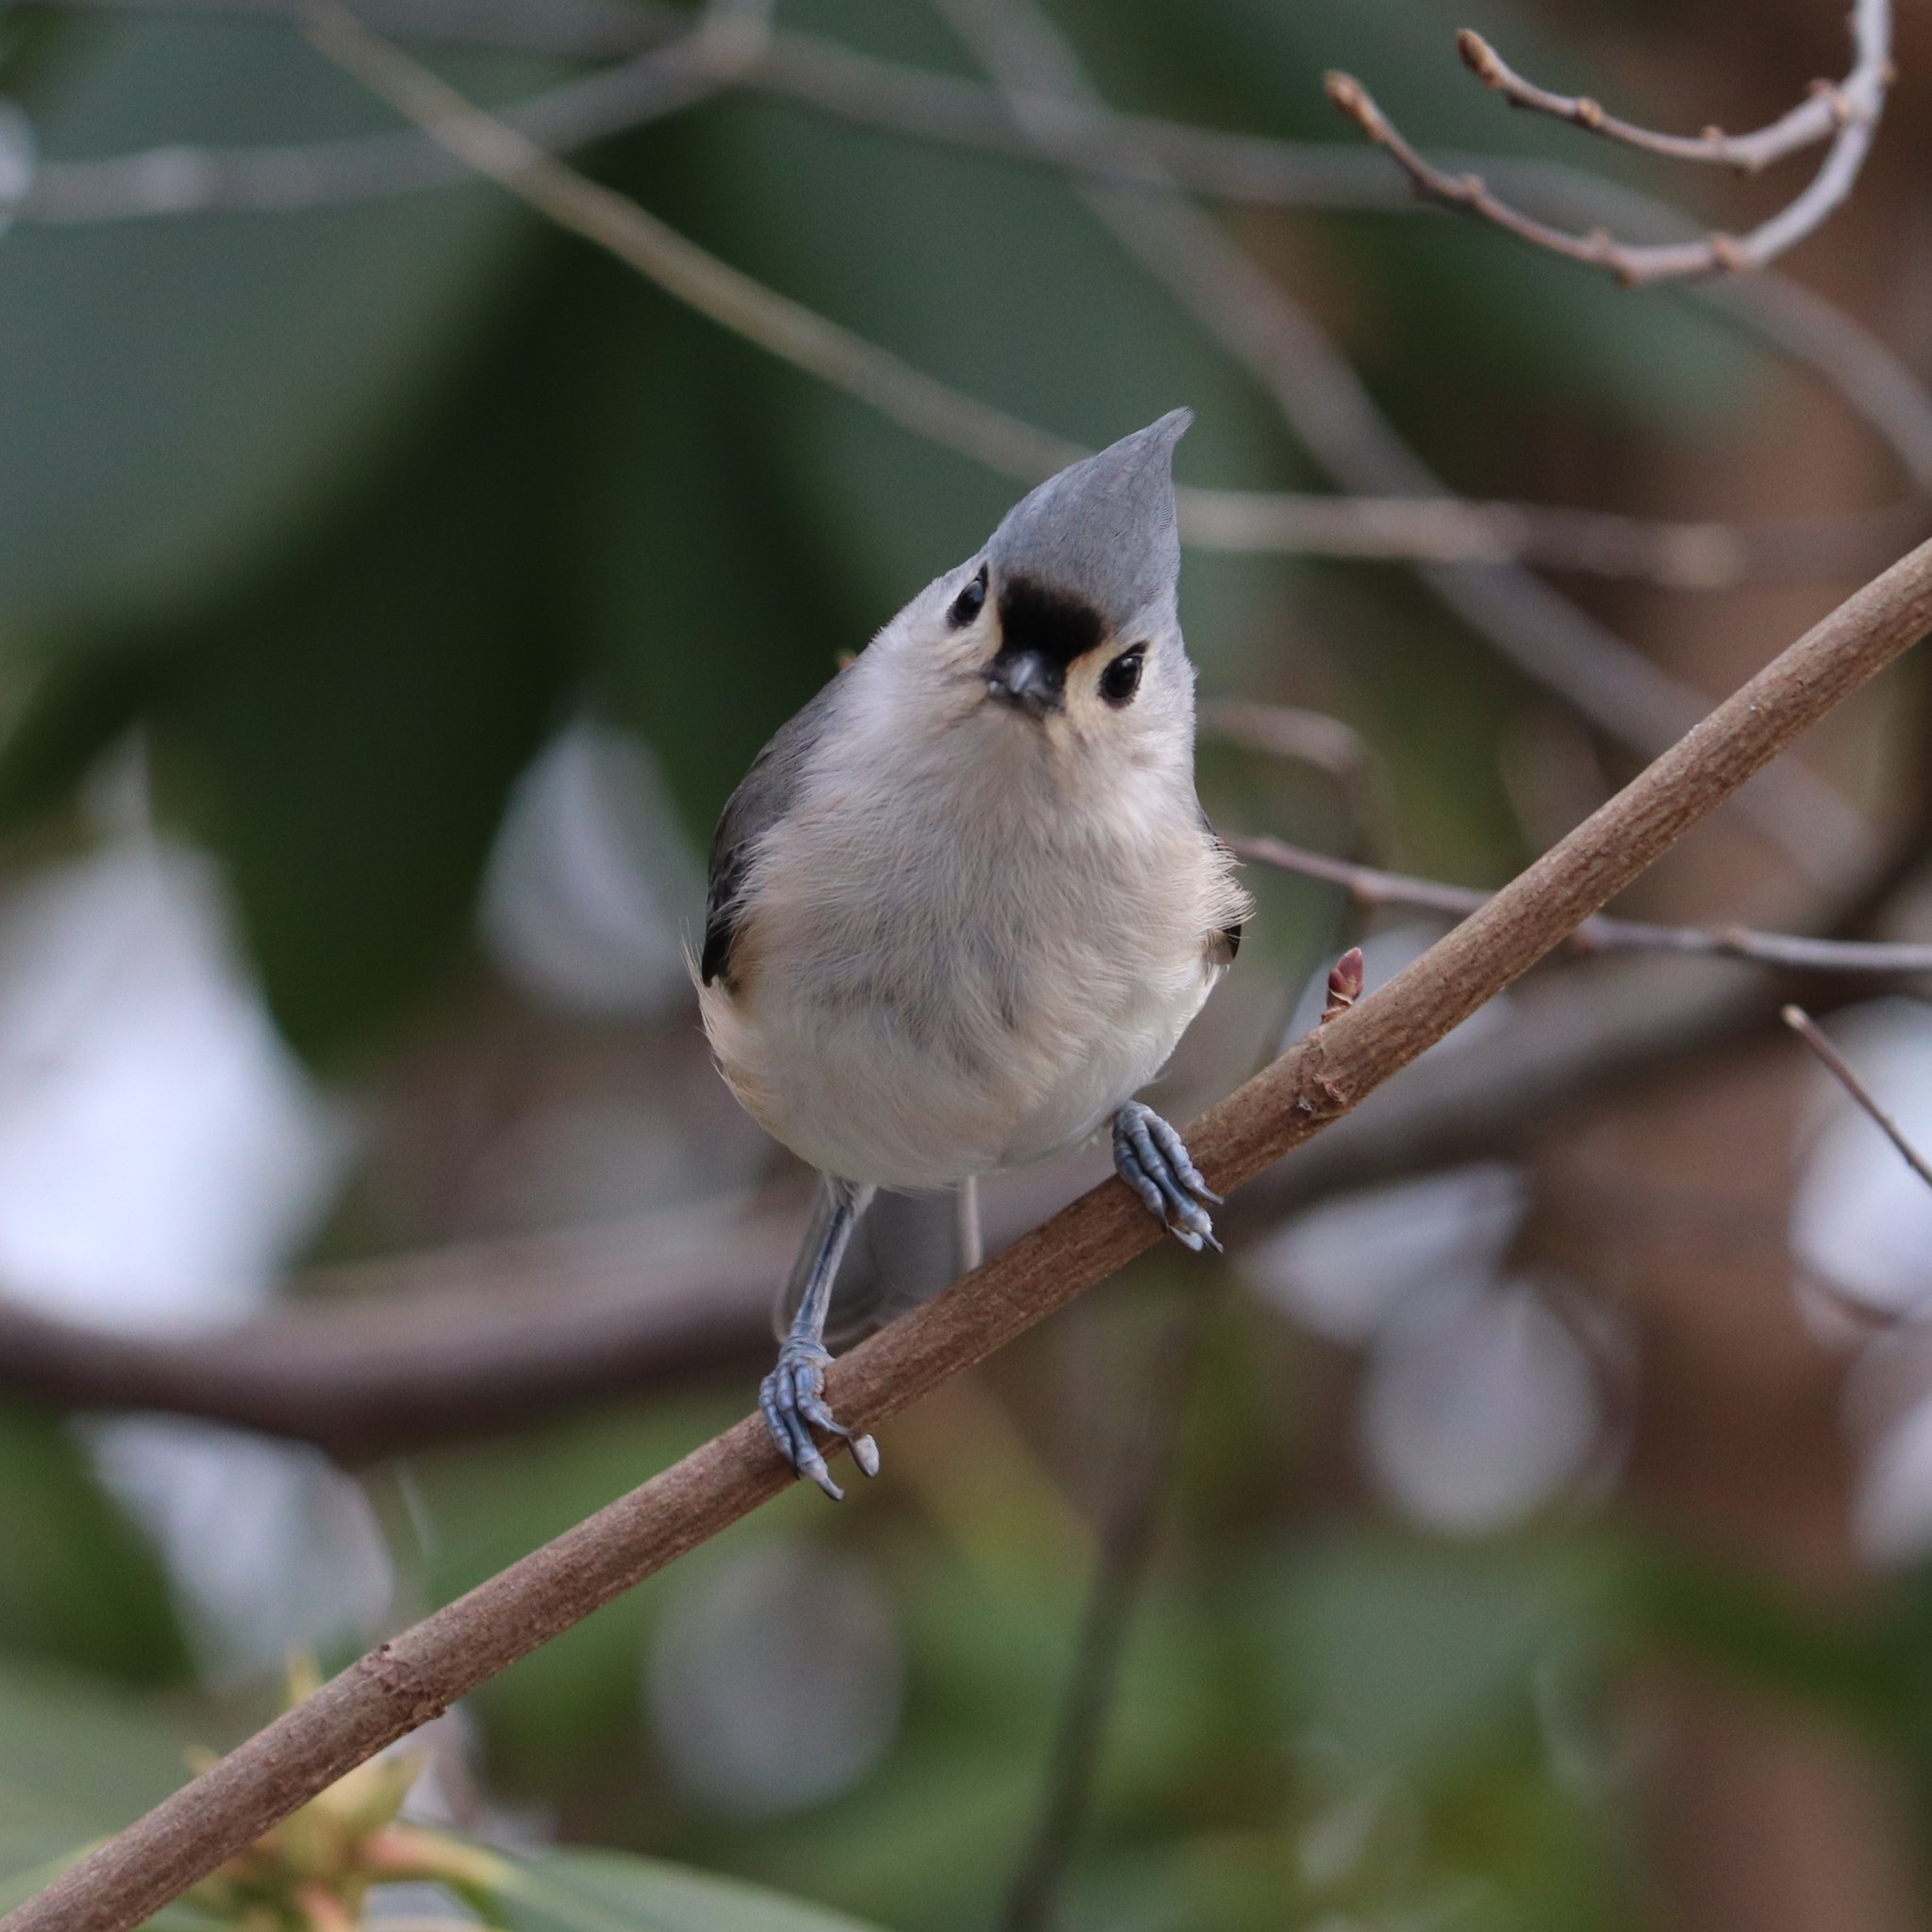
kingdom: Animalia
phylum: Chordata
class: Aves
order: Passeriformes
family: Paridae
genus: Baeolophus
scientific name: Baeolophus bicolor
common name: Tufted titmouse
